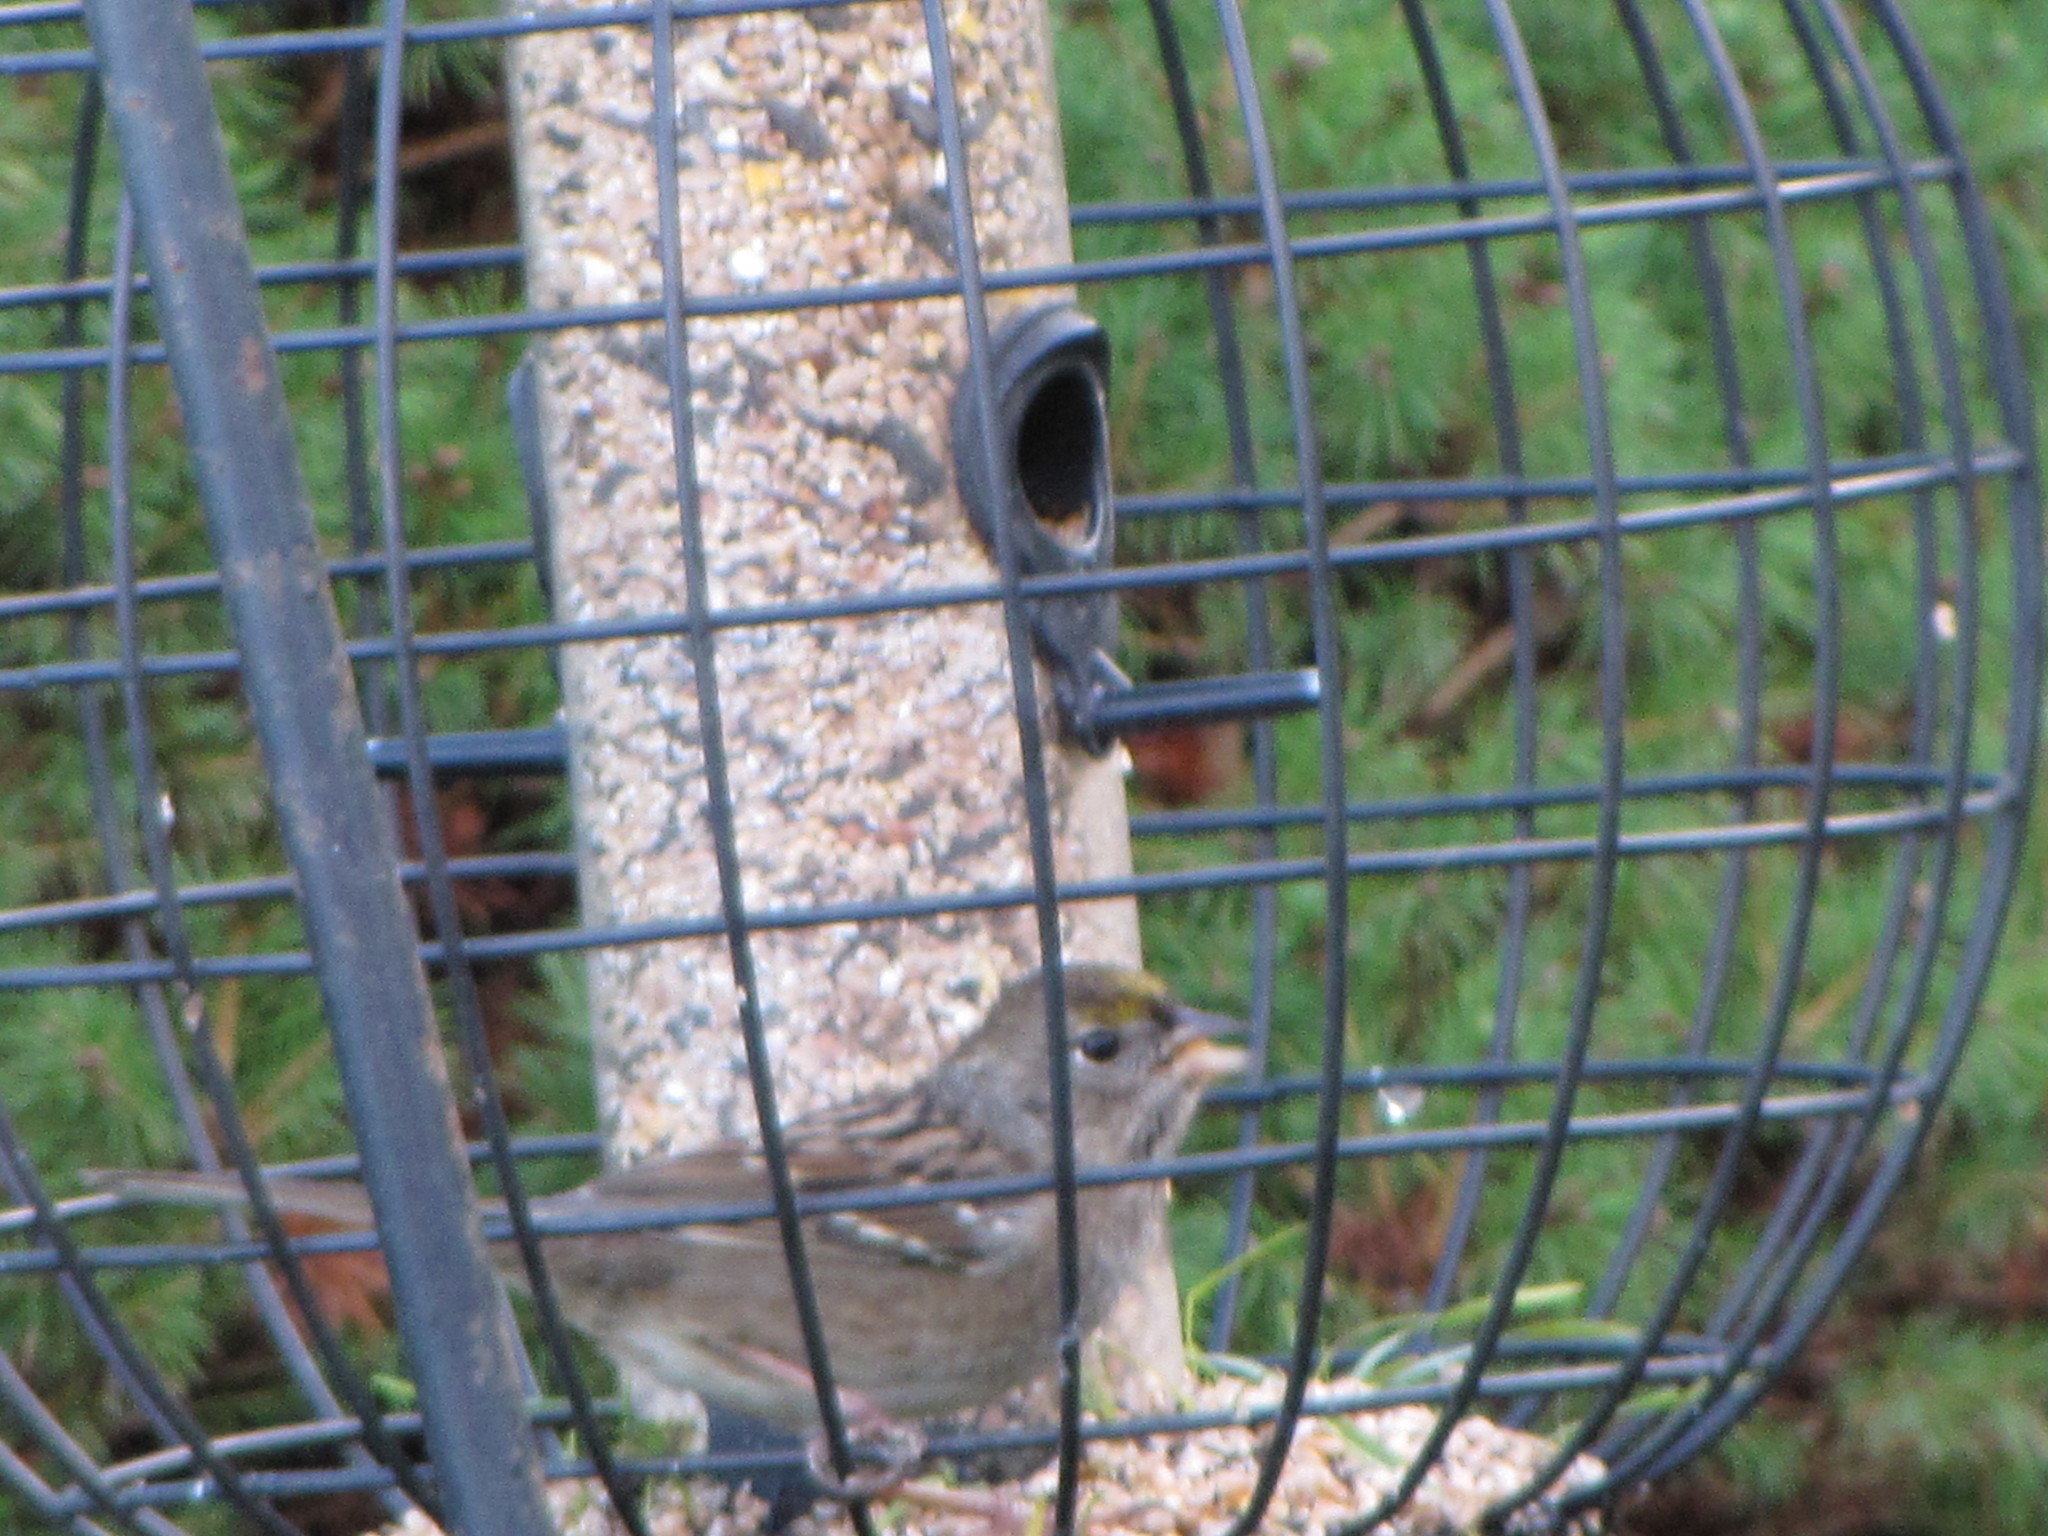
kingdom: Animalia
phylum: Chordata
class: Aves
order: Passeriformes
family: Passerellidae
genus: Zonotrichia
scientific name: Zonotrichia atricapilla
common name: Golden-crowned sparrow
